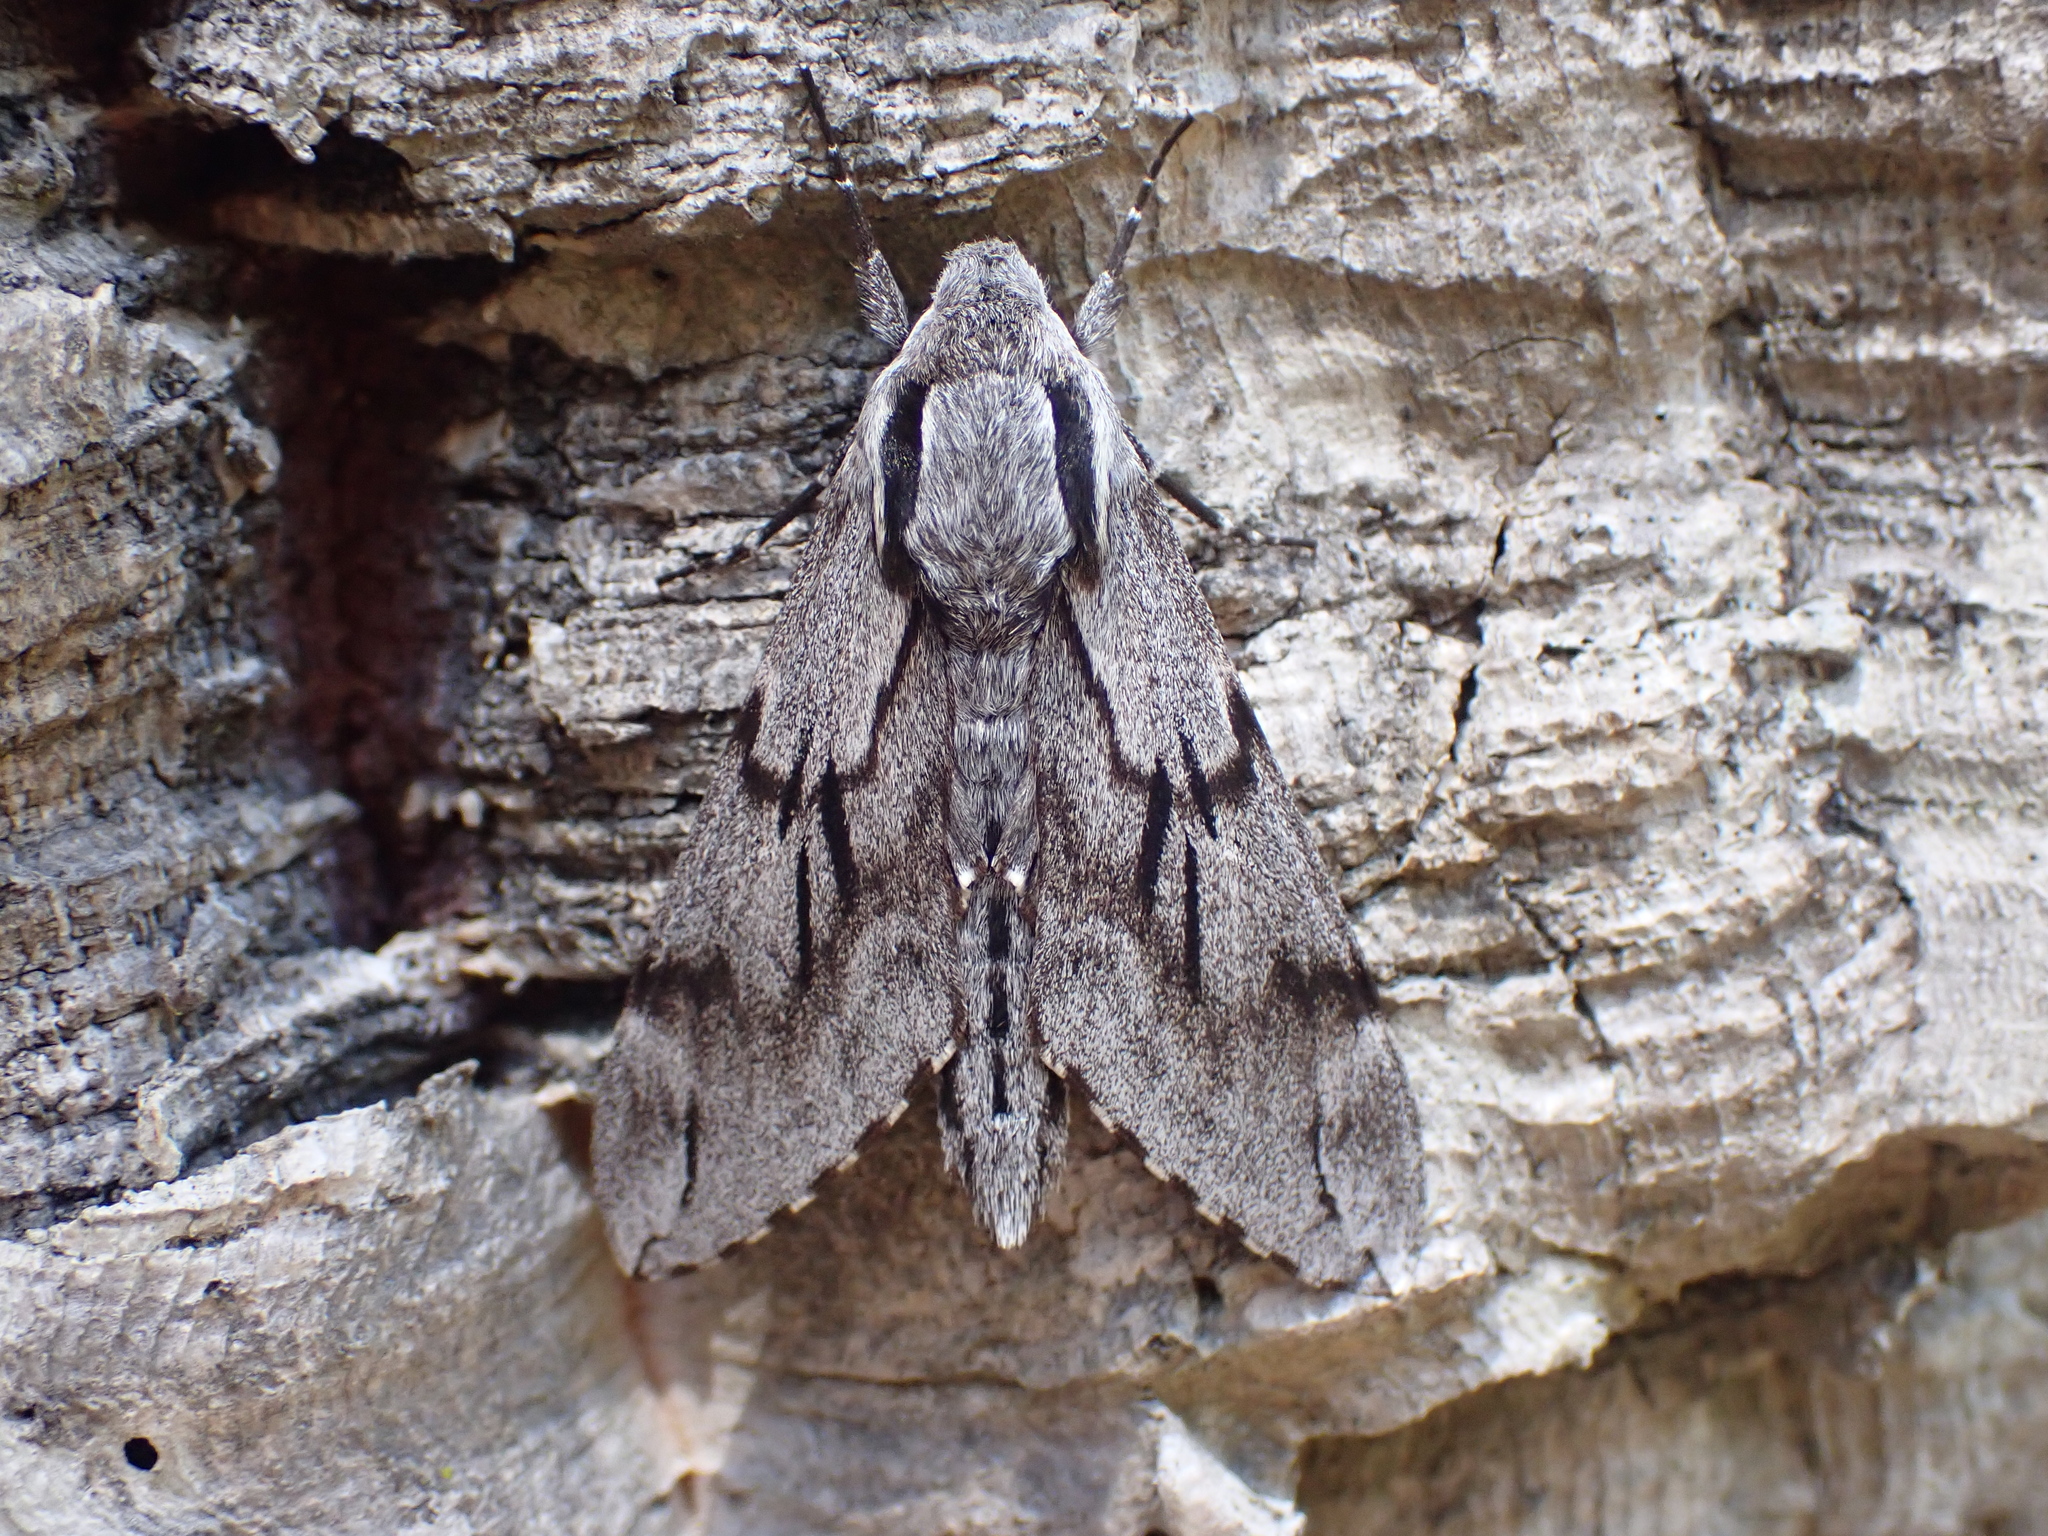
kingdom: Animalia
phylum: Arthropoda
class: Insecta
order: Lepidoptera
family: Sphingidae
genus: Sphinx
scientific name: Sphinx maurorum
